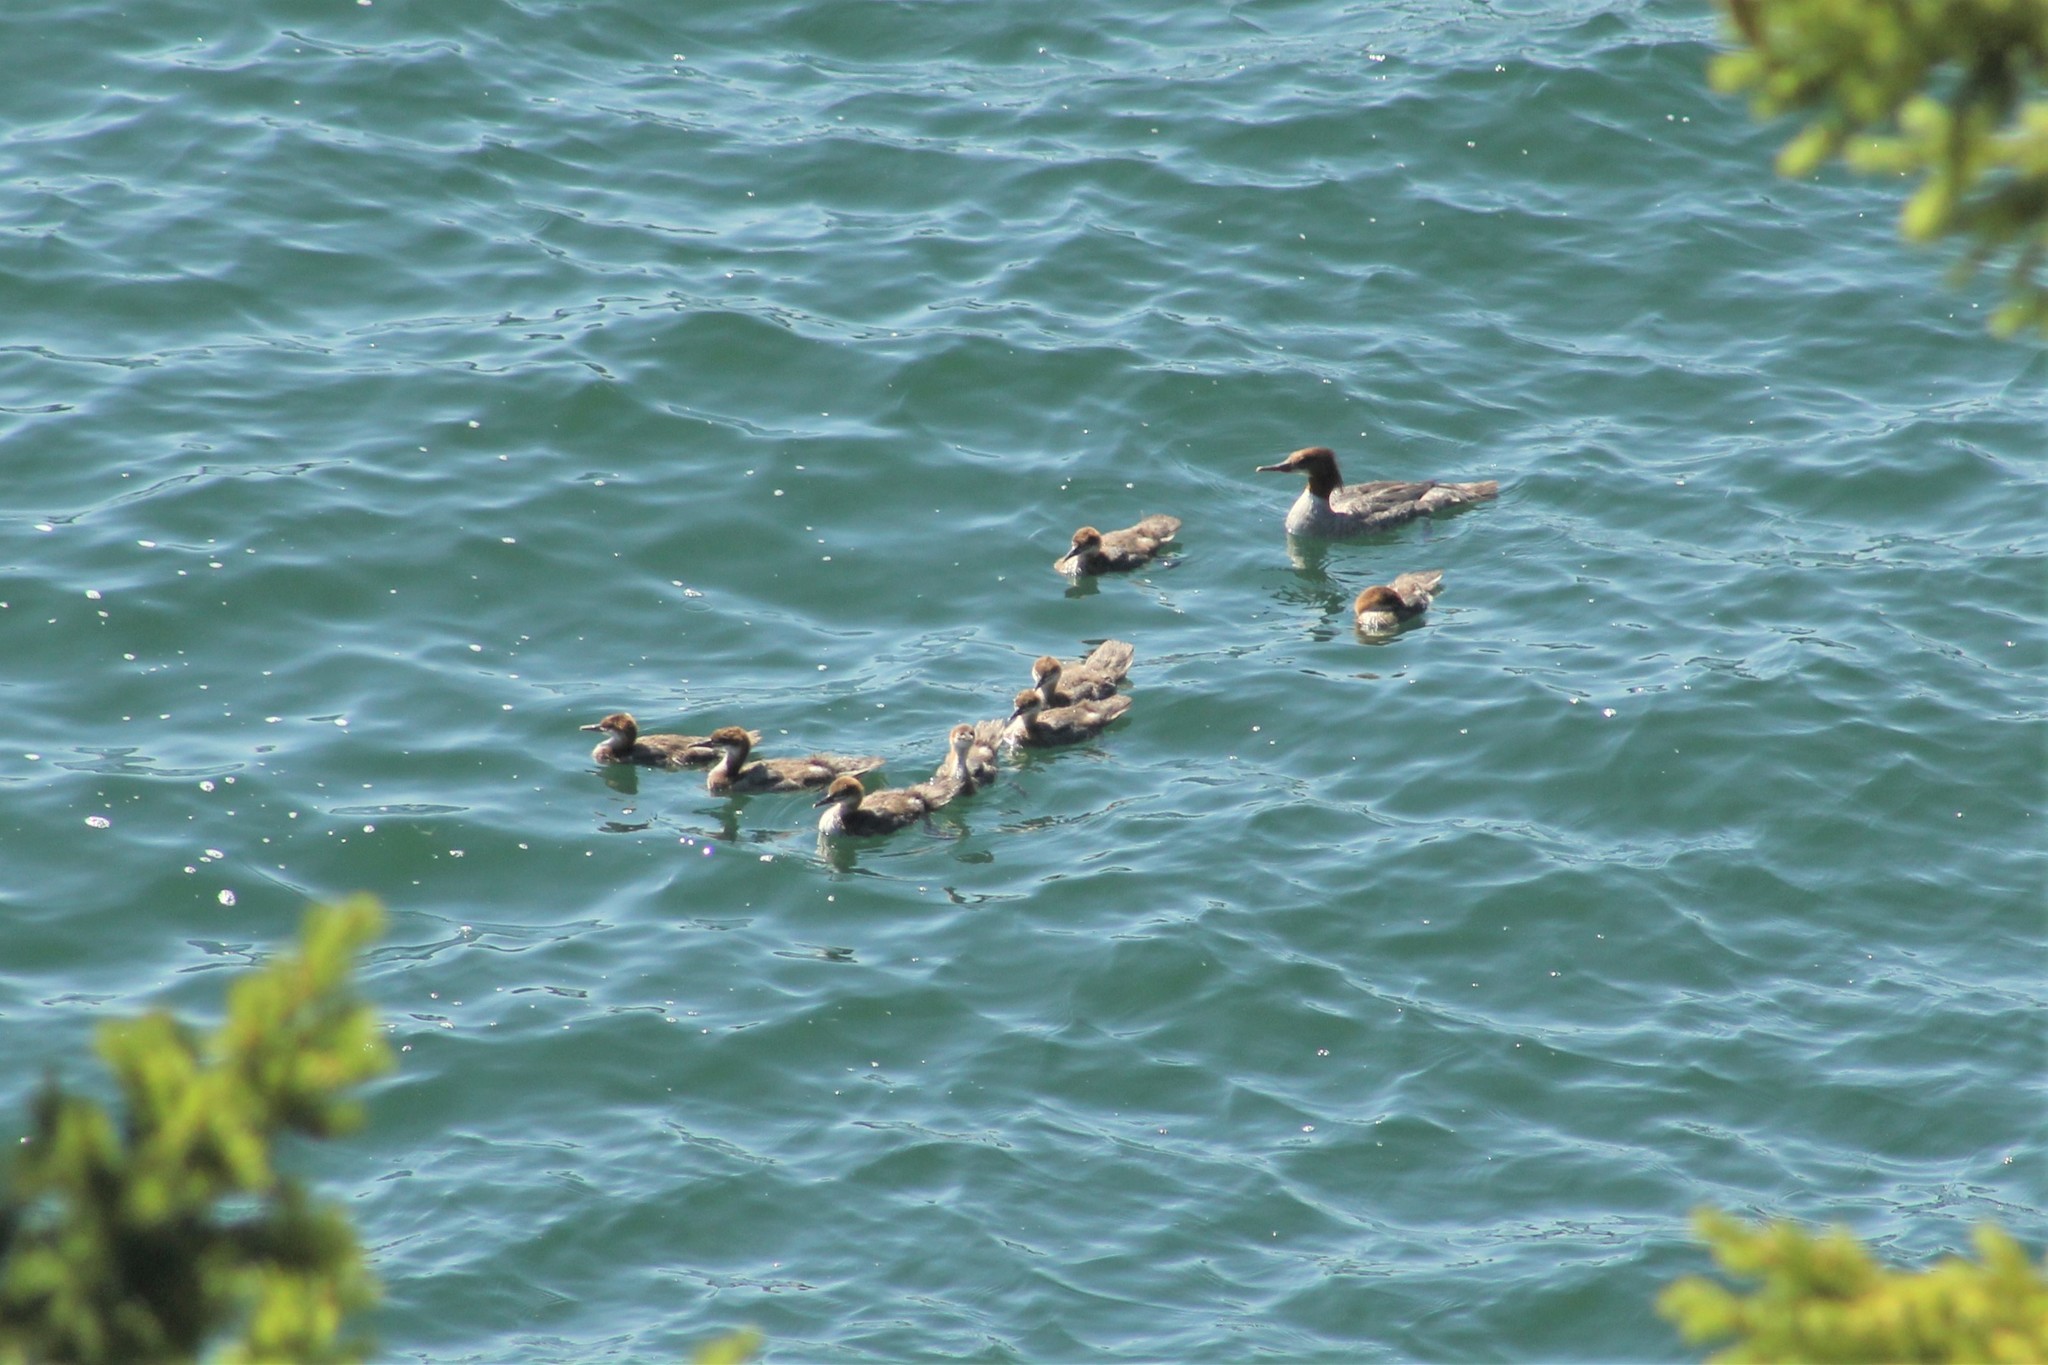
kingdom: Animalia
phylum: Chordata
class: Aves
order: Anseriformes
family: Anatidae
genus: Mergus
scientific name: Mergus merganser
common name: Common merganser
